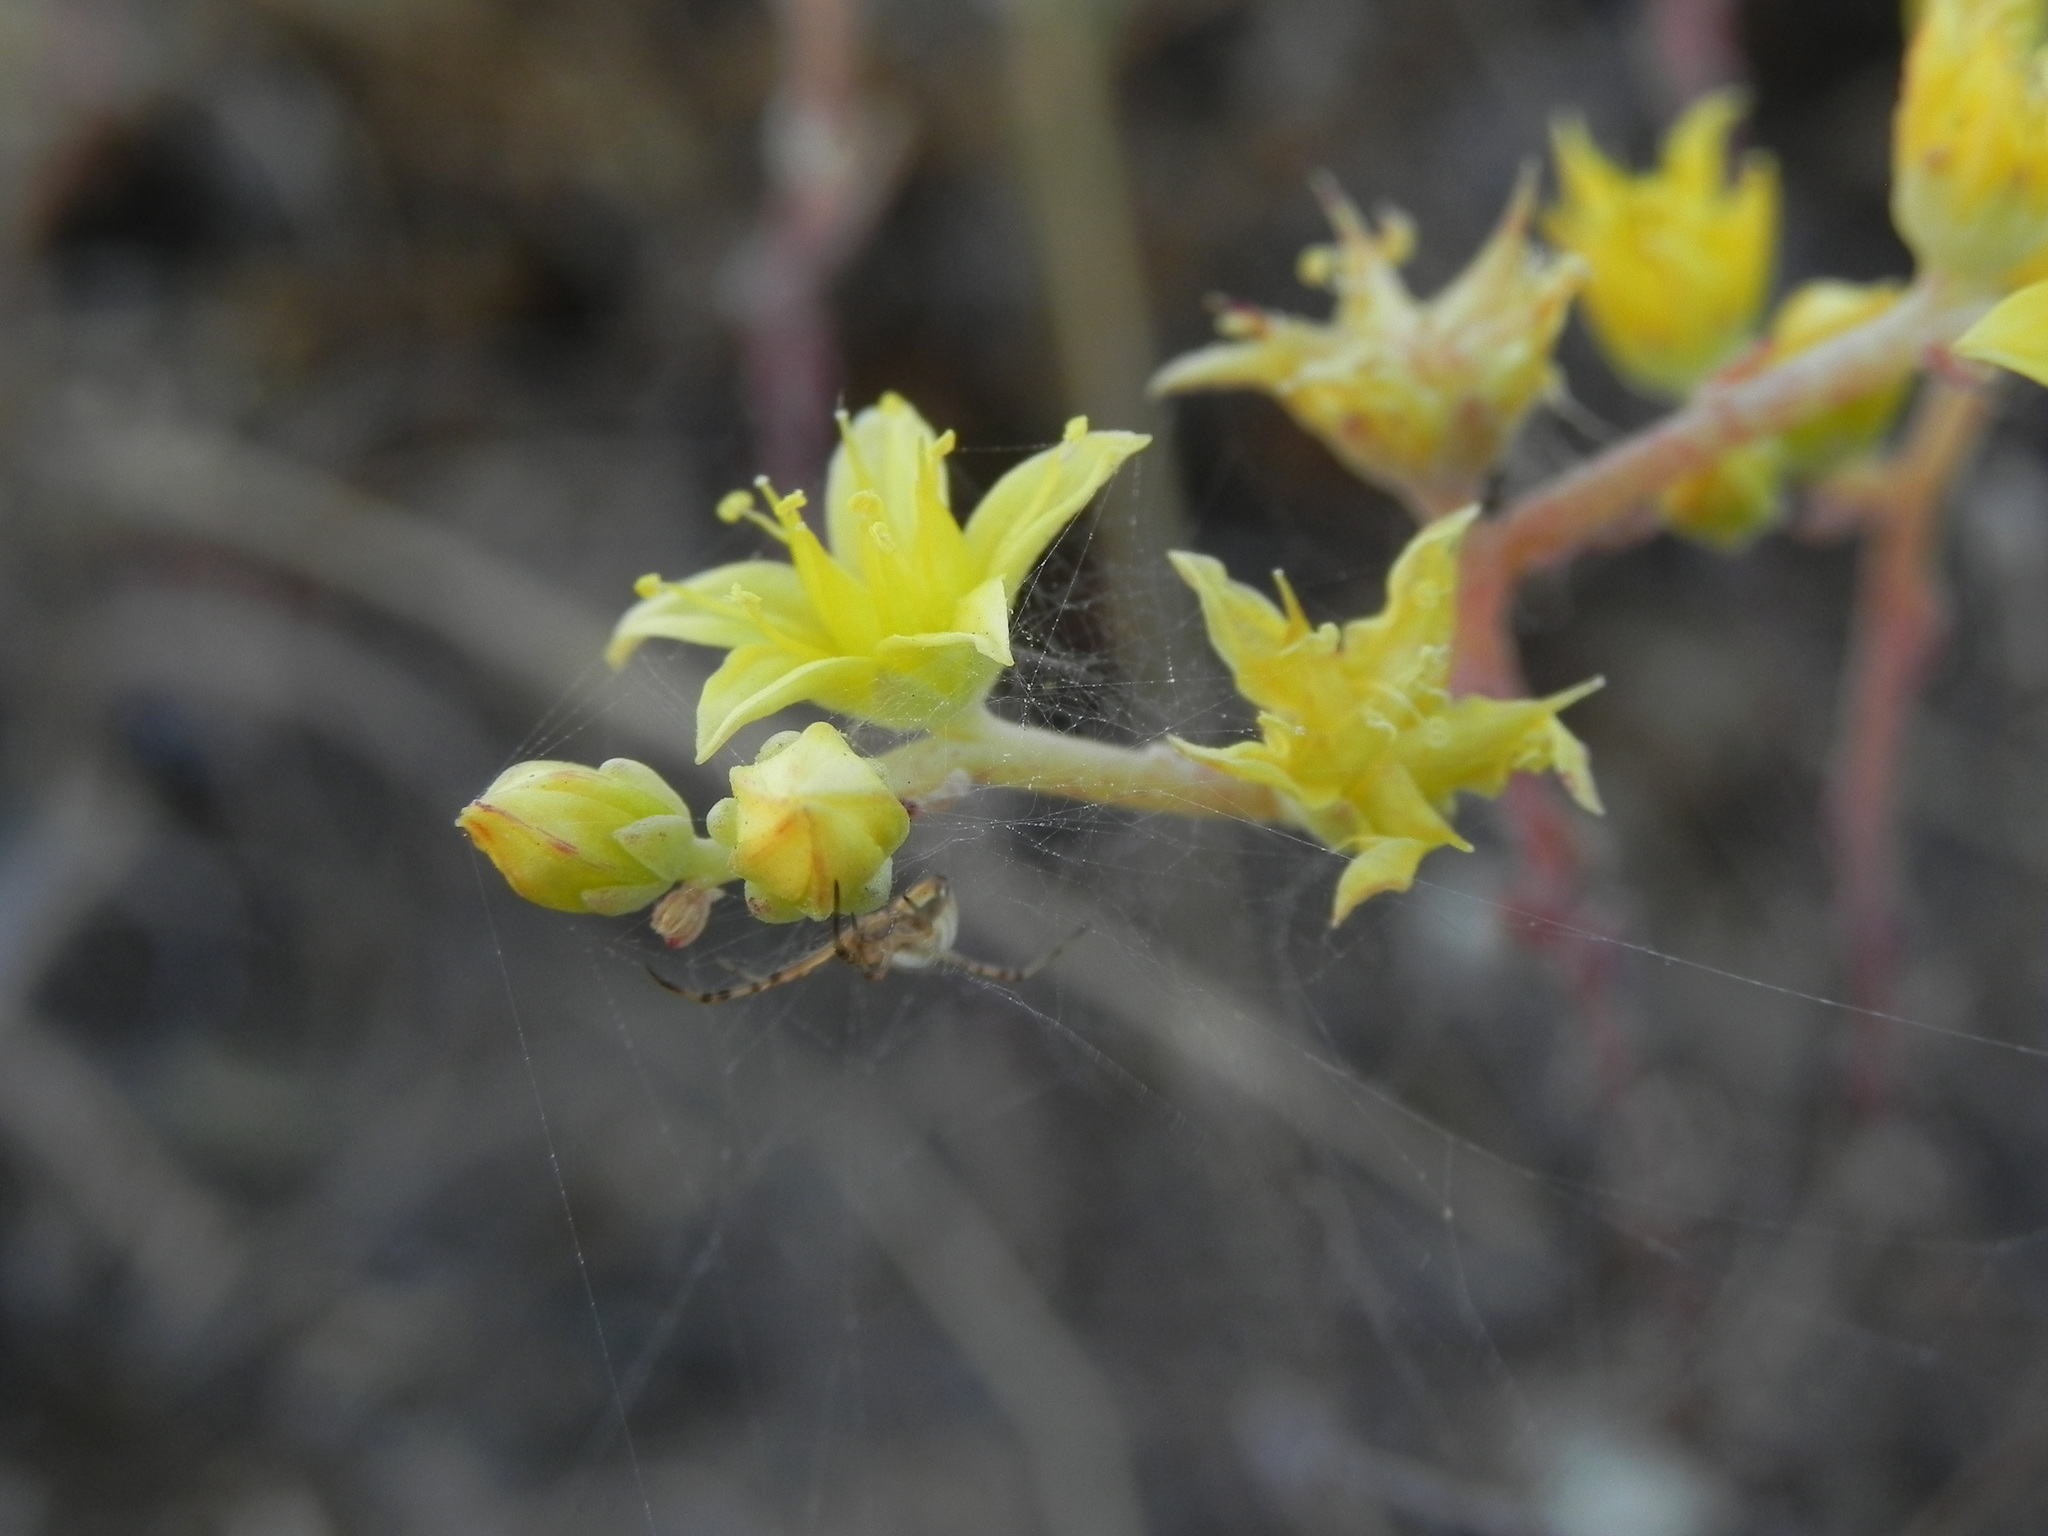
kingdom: Plantae
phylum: Tracheophyta
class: Magnoliopsida
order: Saxifragales
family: Crassulaceae
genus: Dudleya
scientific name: Dudleya variegata
